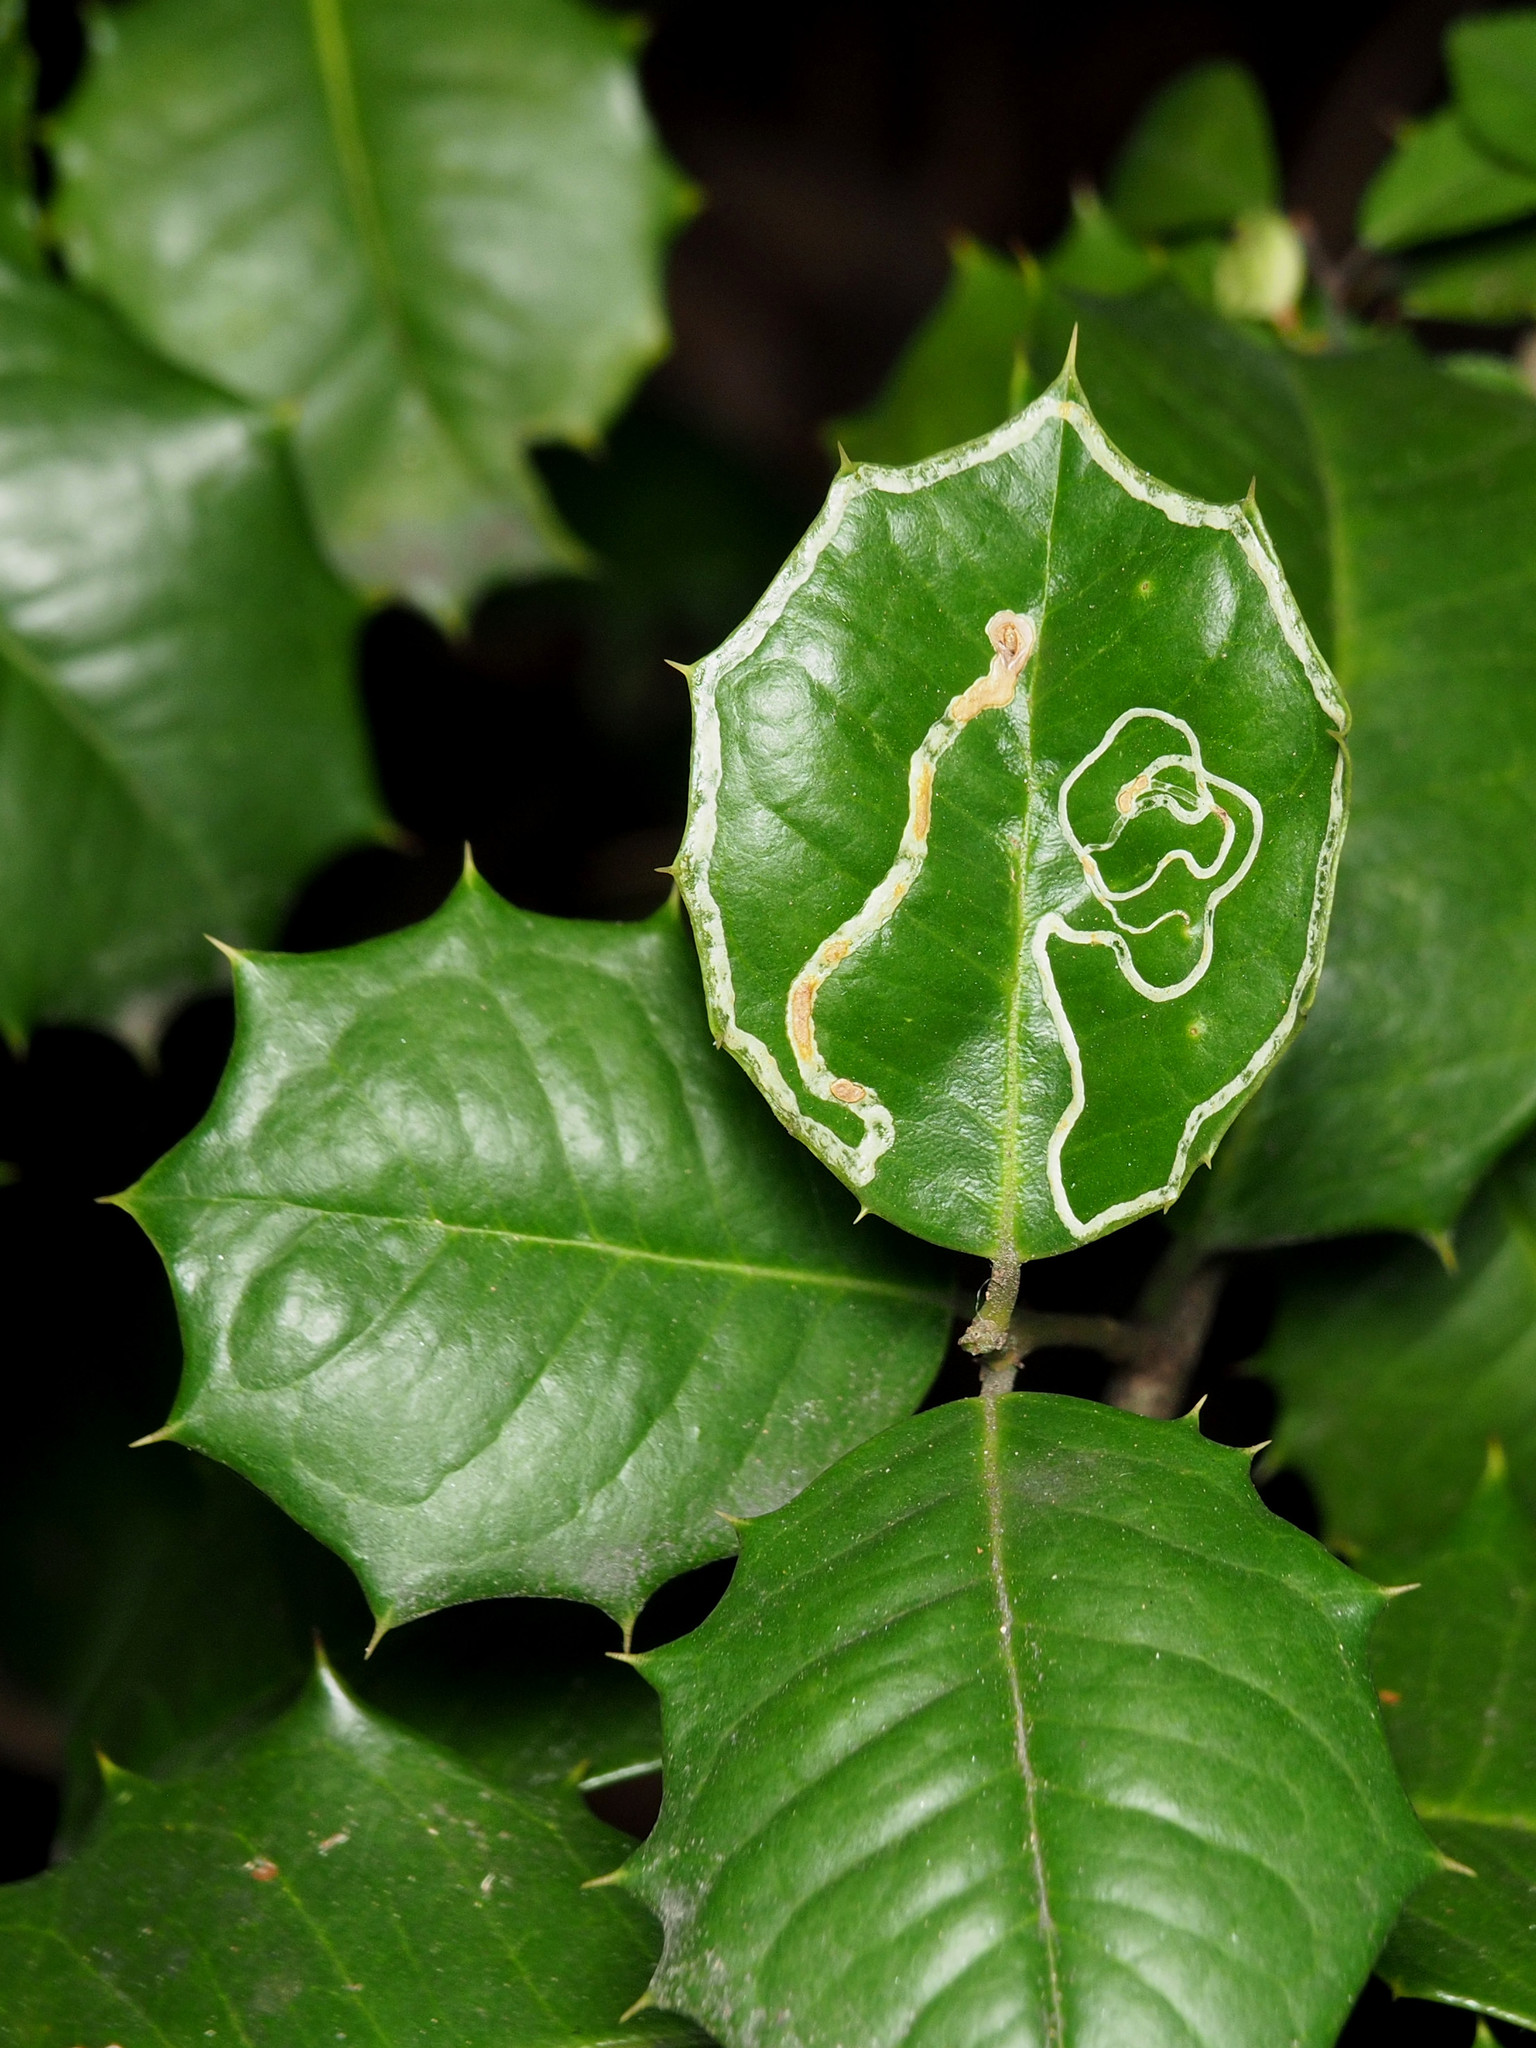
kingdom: Animalia
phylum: Arthropoda
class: Insecta
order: Diptera
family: Agromyzidae
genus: Phytomyza
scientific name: Phytomyza opacae
